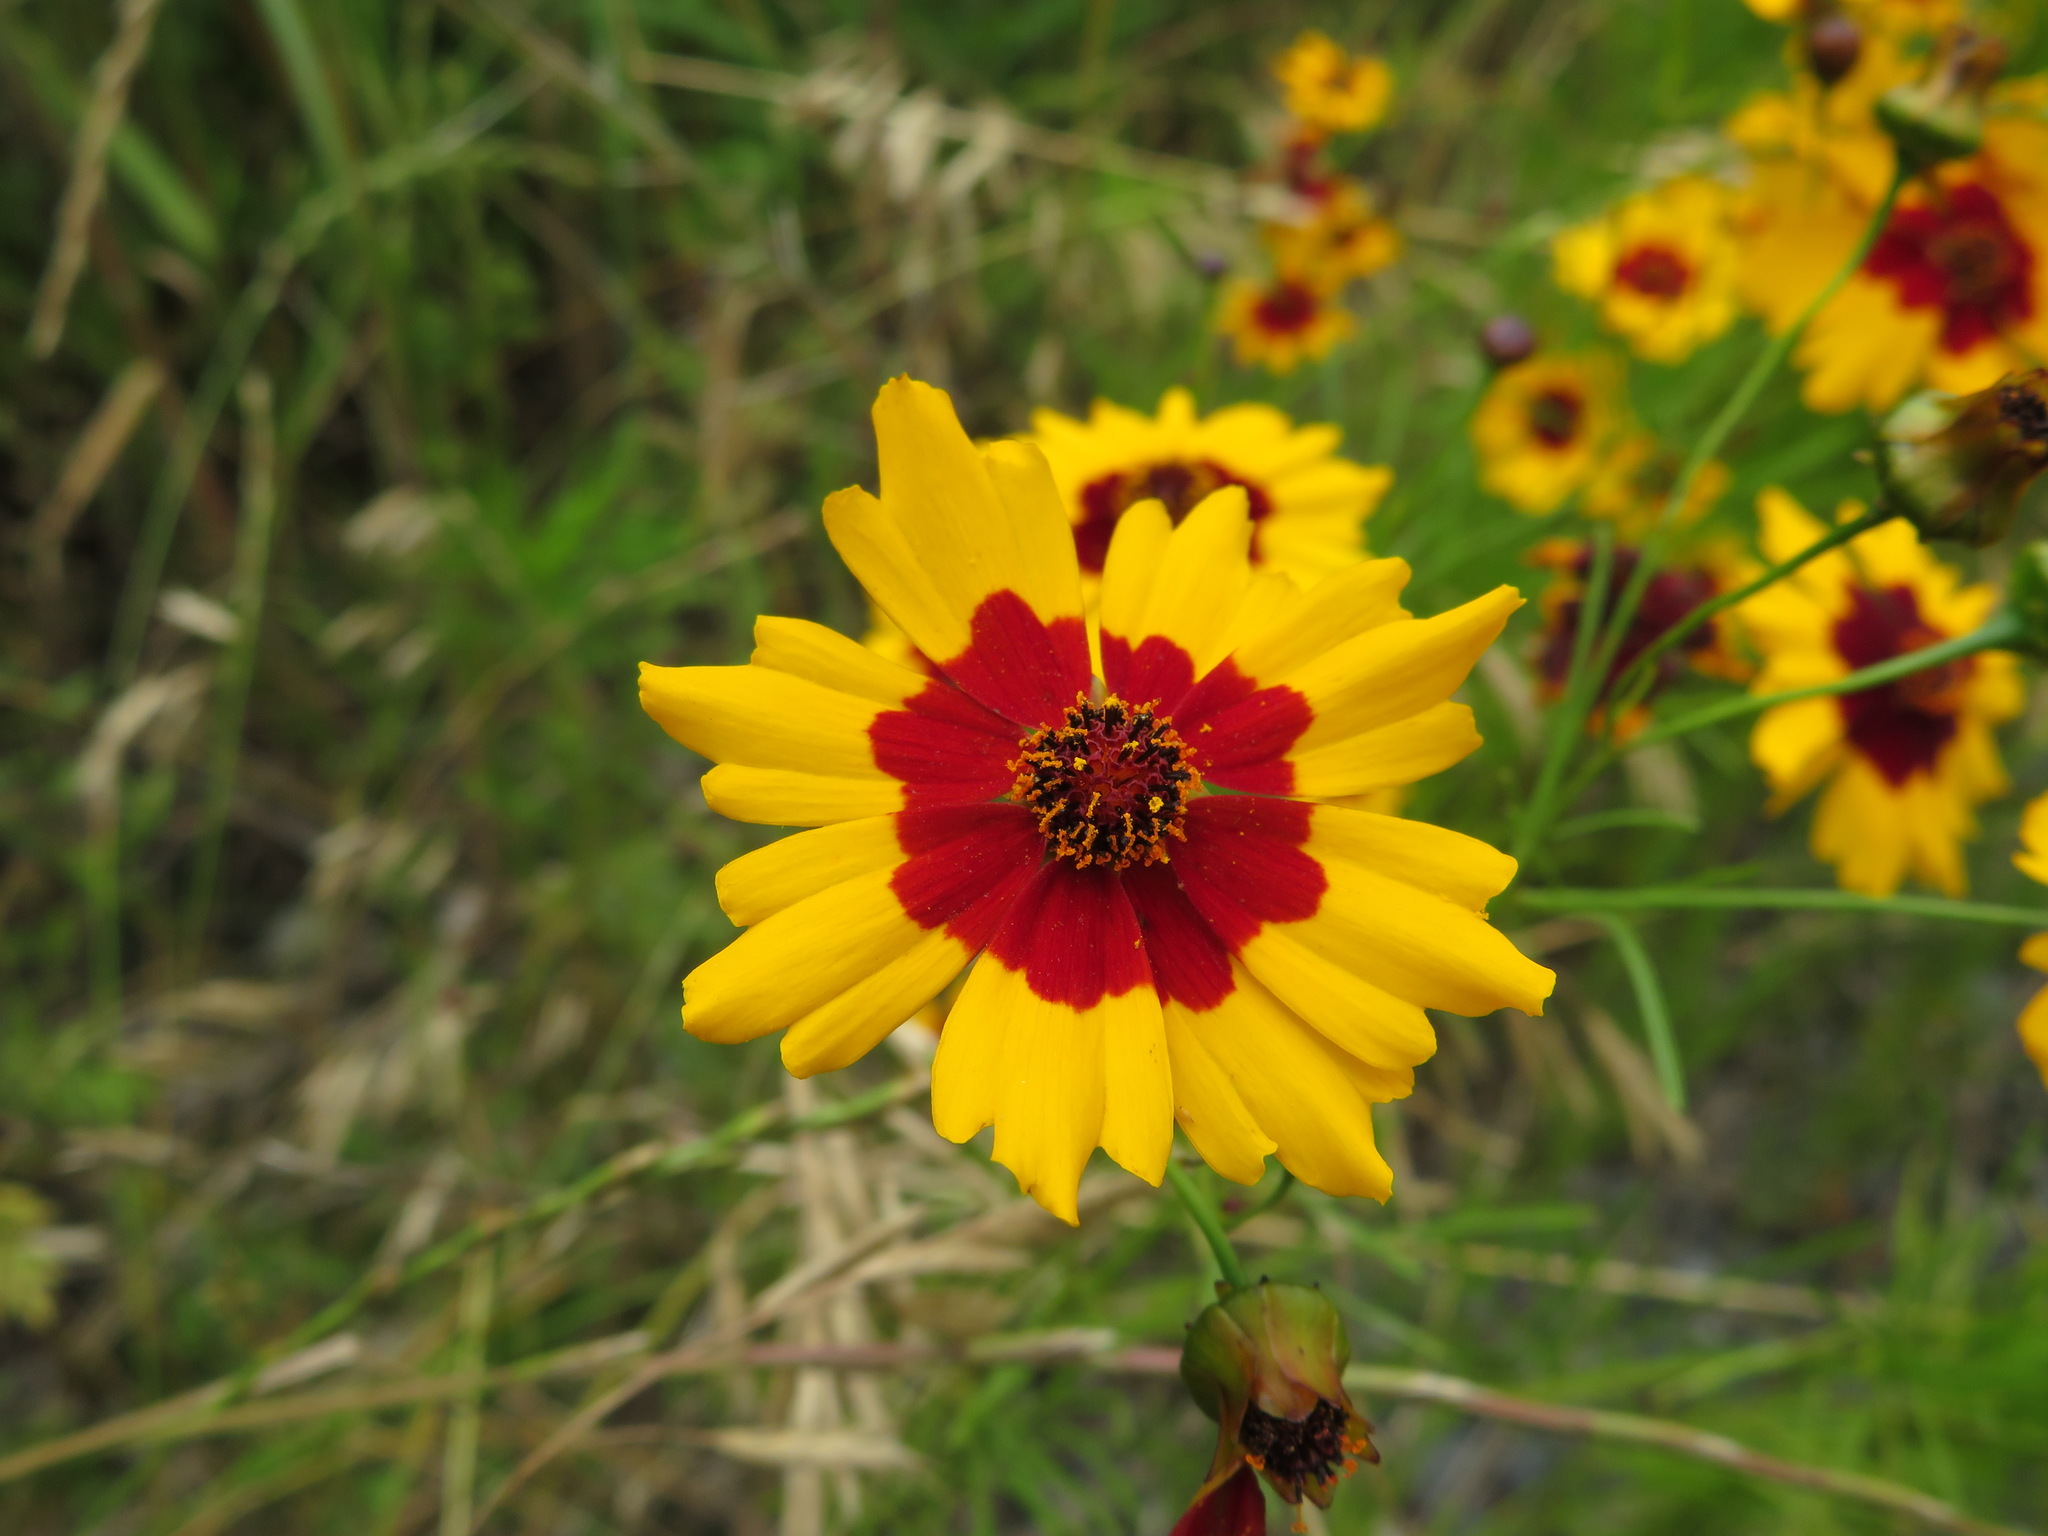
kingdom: Plantae
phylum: Tracheophyta
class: Magnoliopsida
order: Asterales
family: Asteraceae
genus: Coreopsis
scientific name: Coreopsis tinctoria
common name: Garden tickseed
